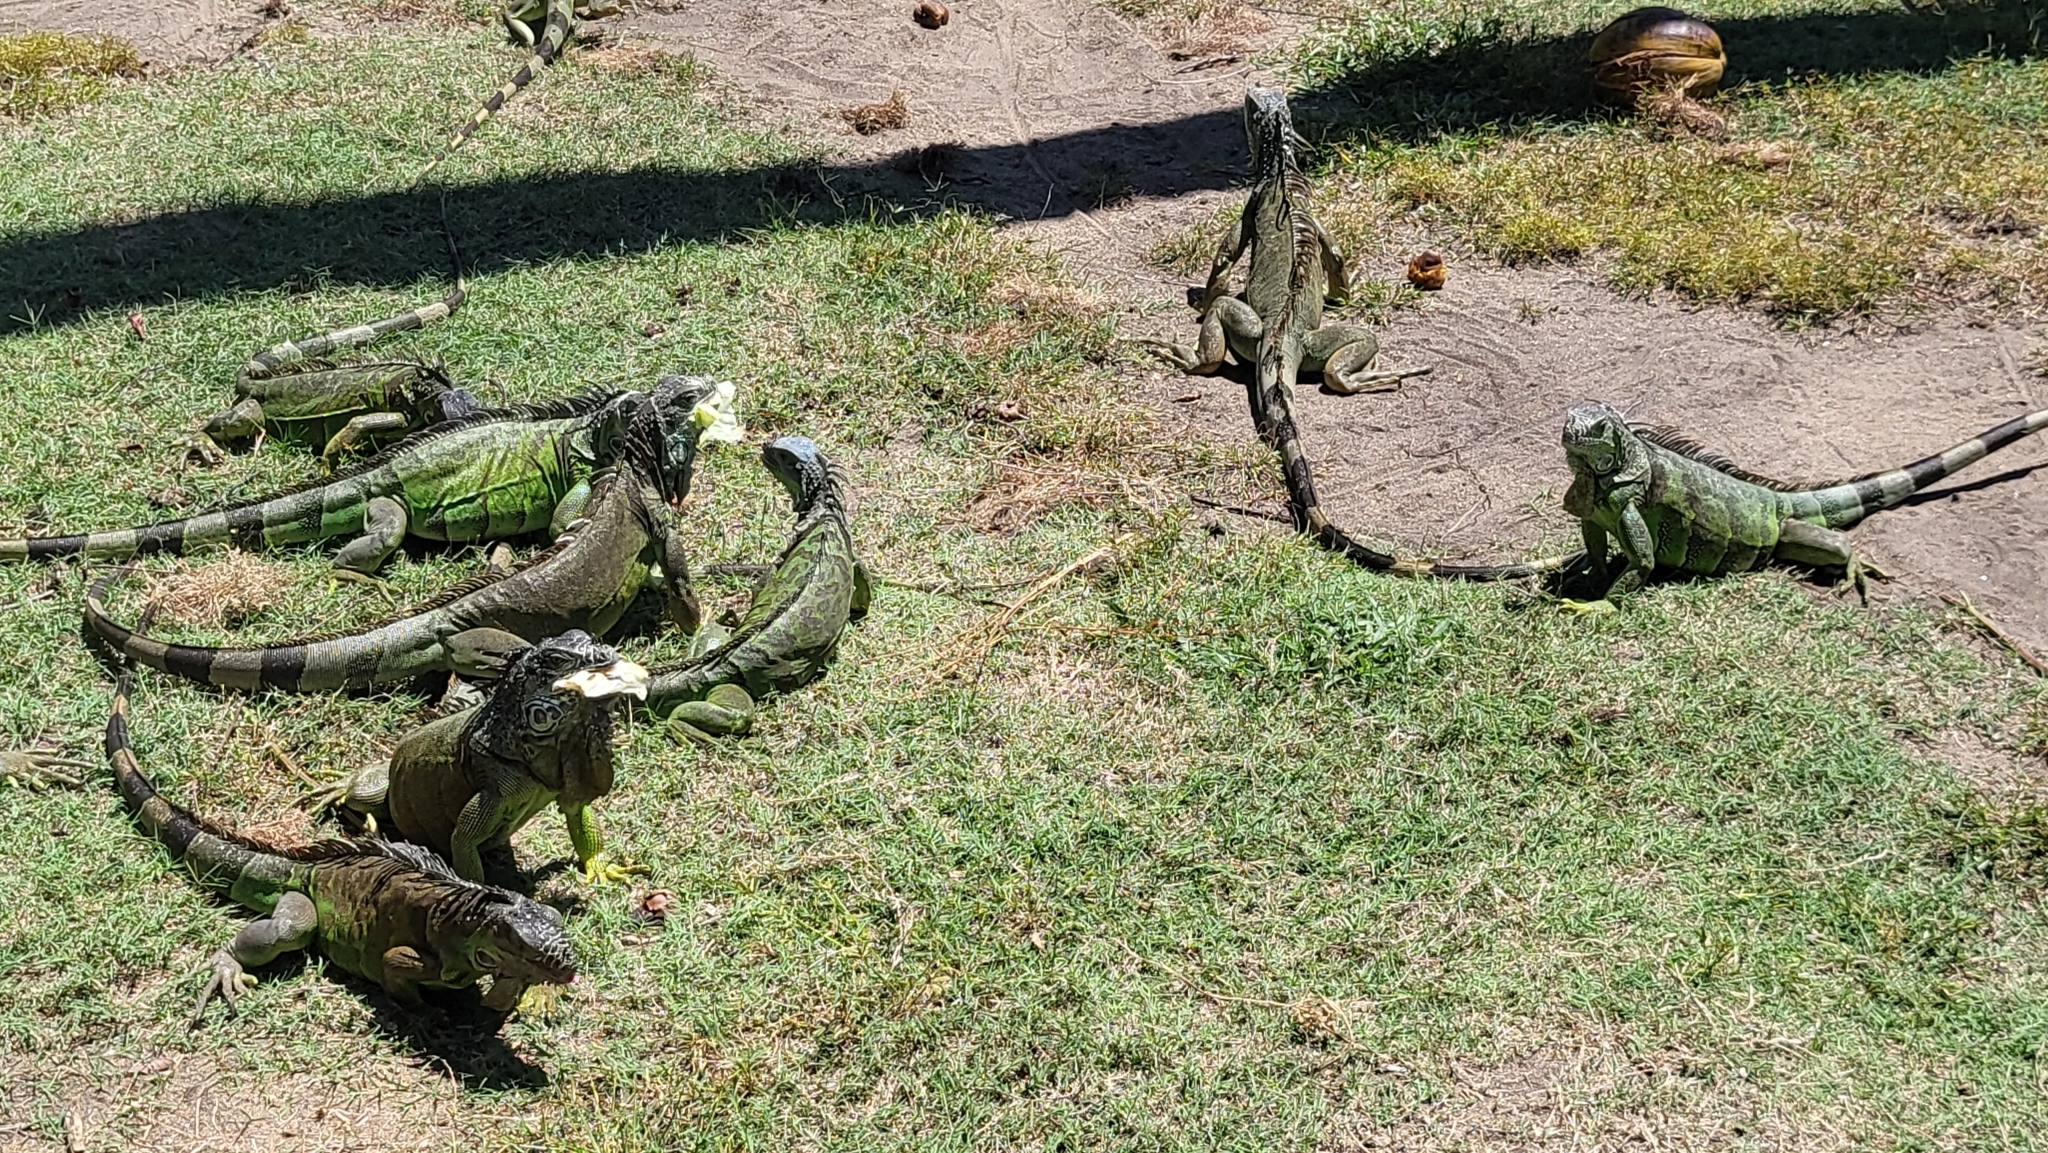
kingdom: Animalia
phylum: Chordata
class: Squamata
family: Iguanidae
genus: Iguana
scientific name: Iguana iguana
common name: Green iguana
